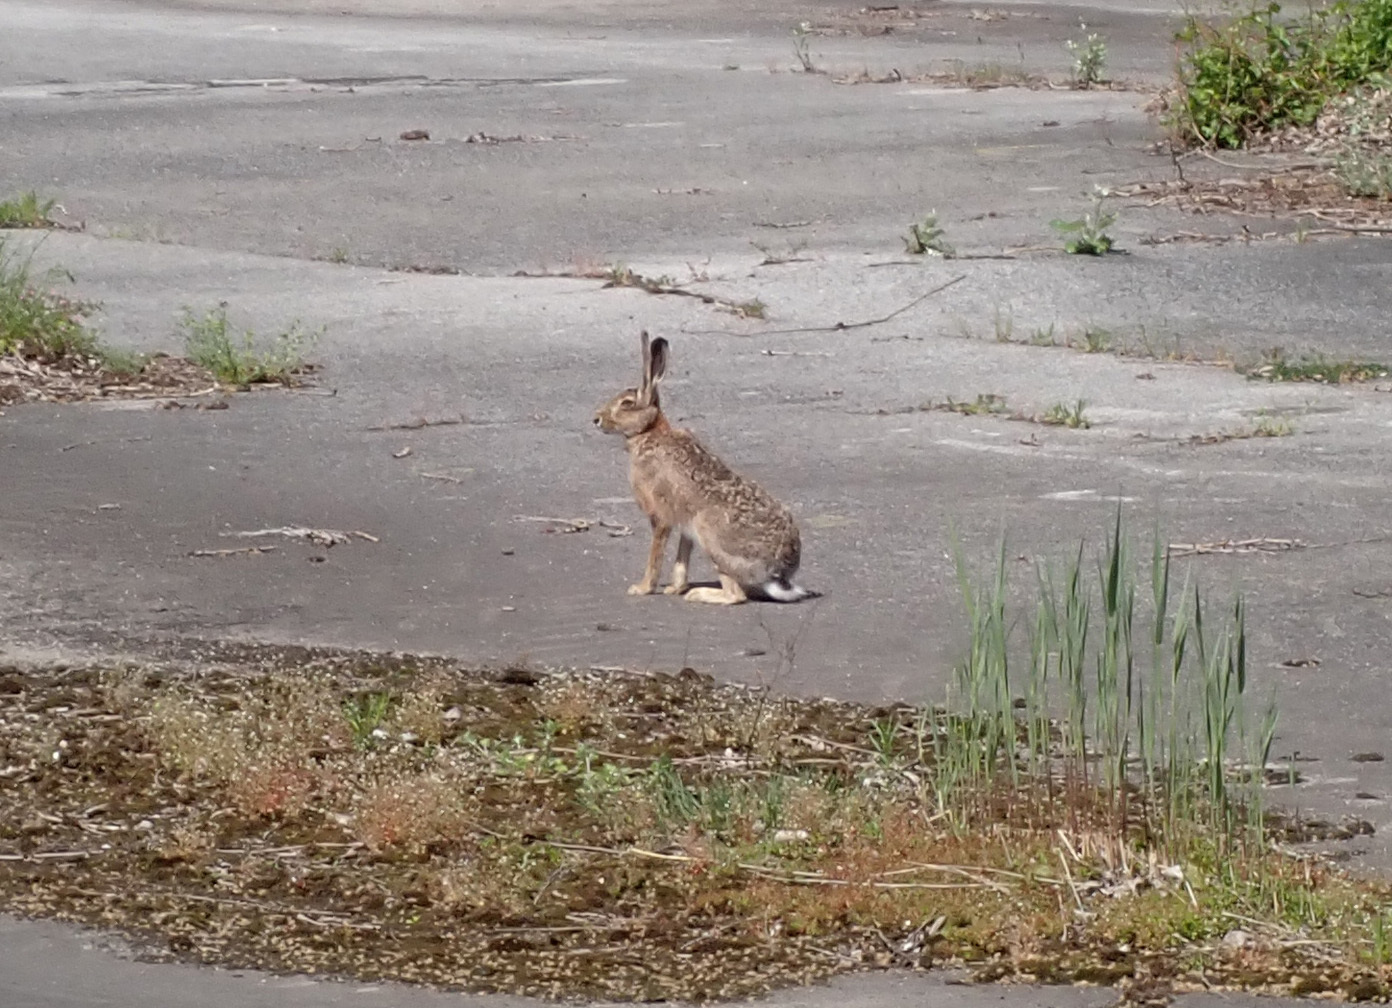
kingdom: Animalia
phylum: Chordata
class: Mammalia
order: Lagomorpha
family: Leporidae
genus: Lepus
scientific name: Lepus europaeus
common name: European hare
